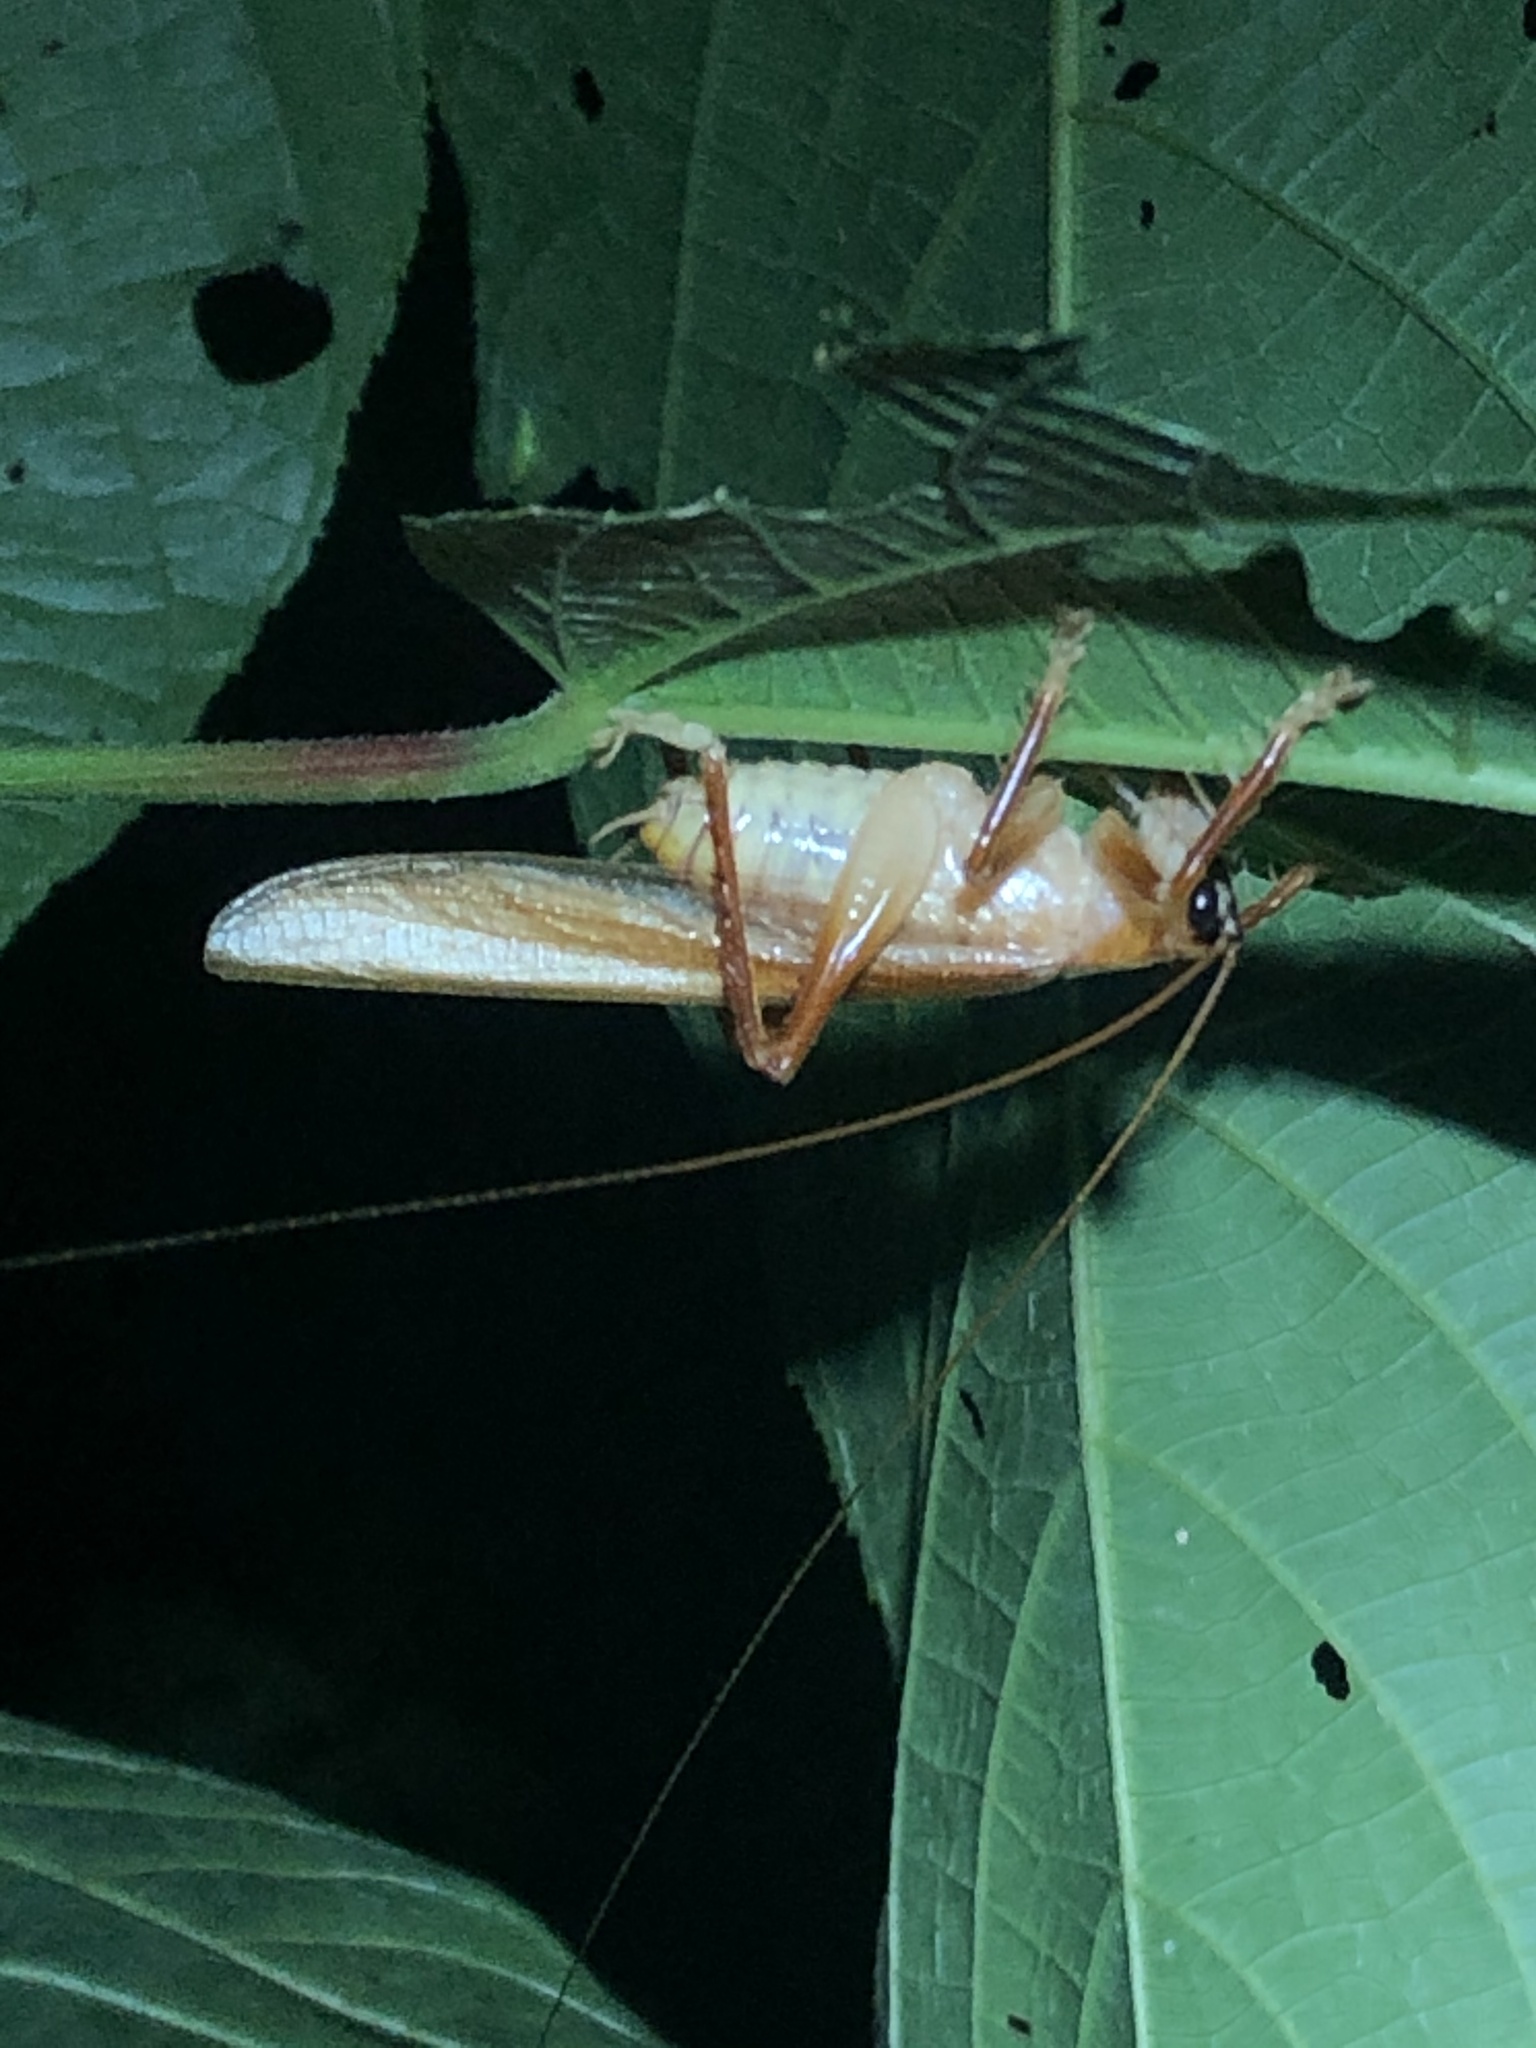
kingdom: Animalia
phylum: Arthropoda
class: Insecta
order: Orthoptera
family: Gryllacrididae
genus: Hyperbaenus
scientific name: Hyperbaenus ommatostemma
